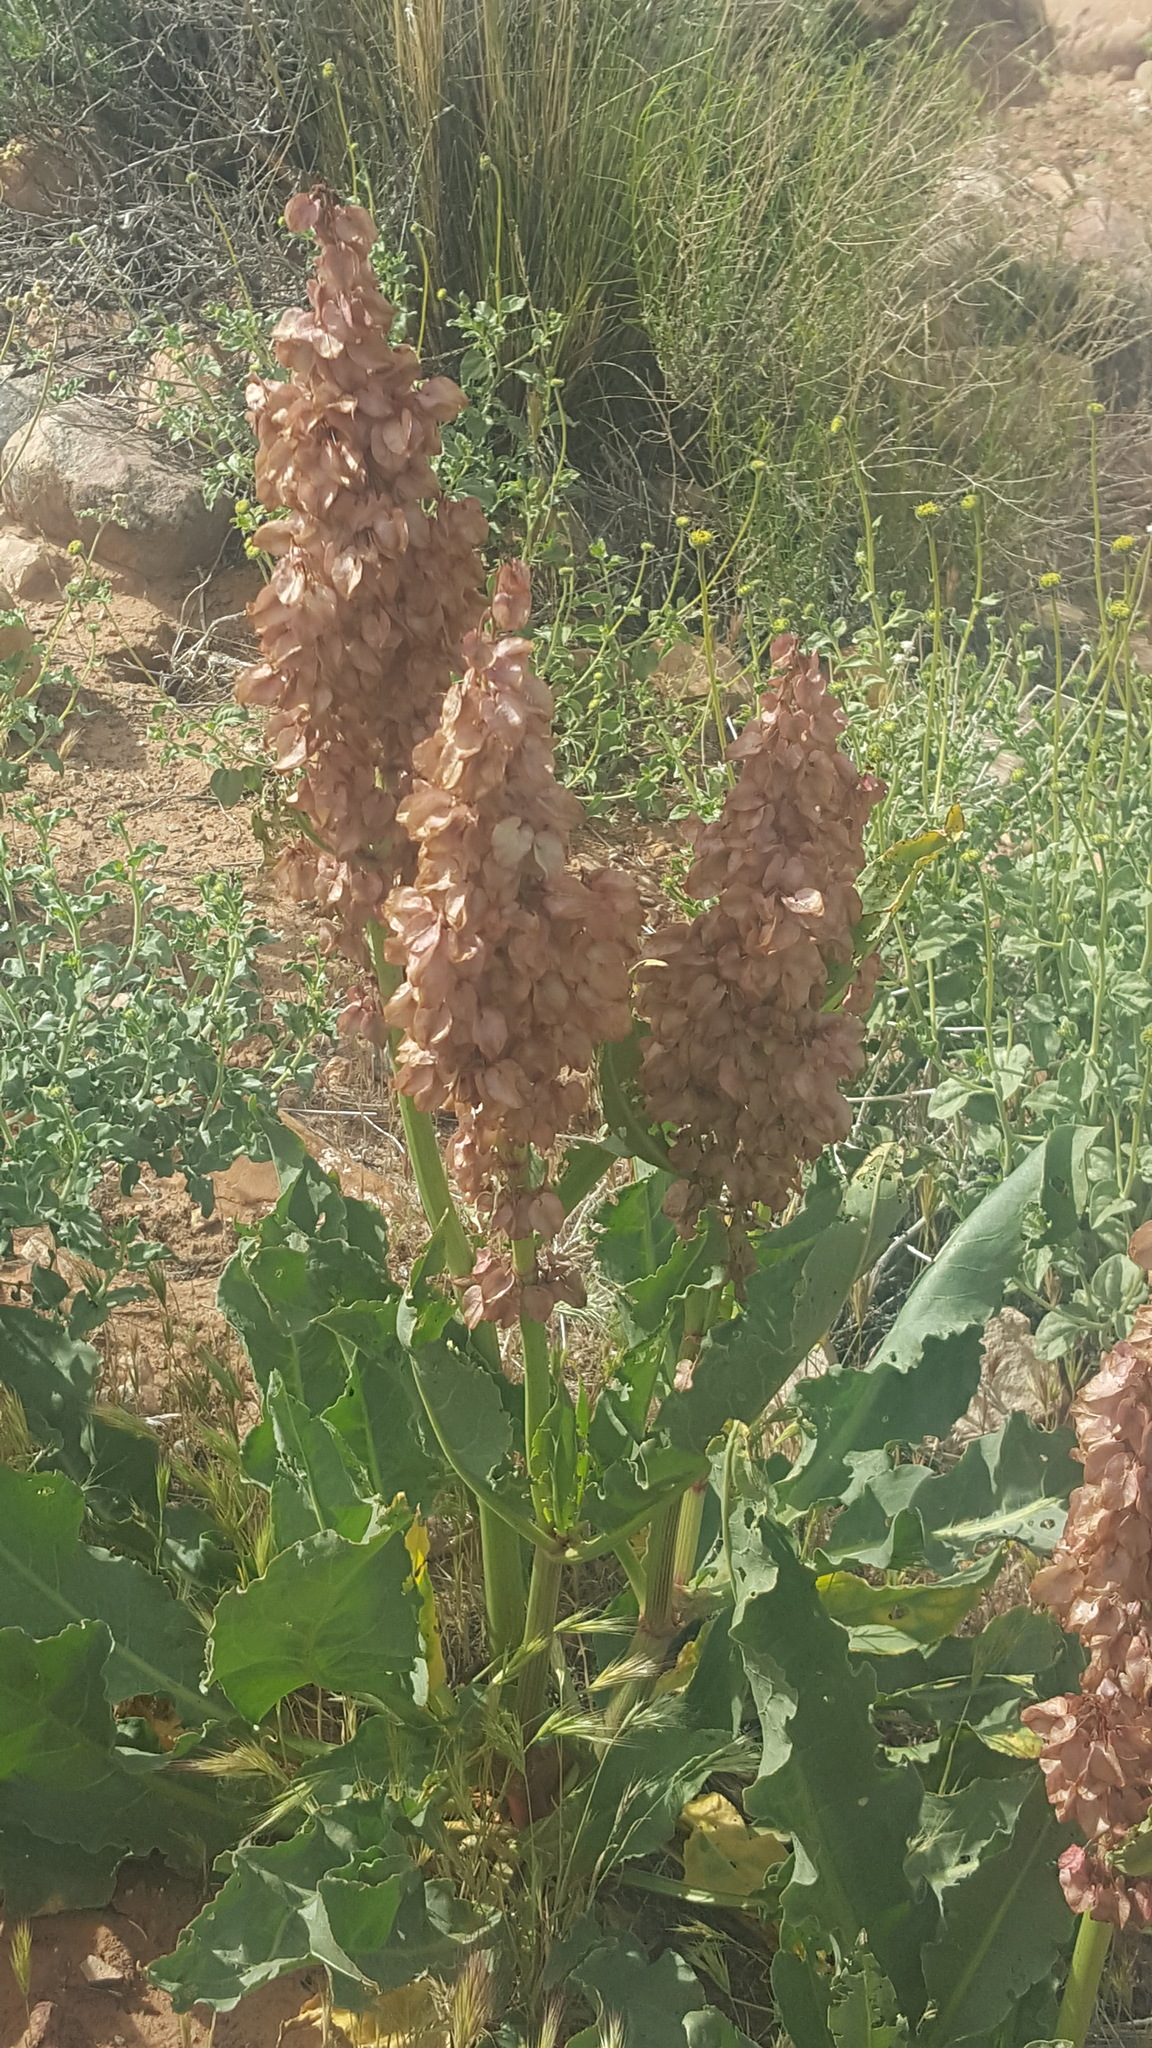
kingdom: Plantae
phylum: Tracheophyta
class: Magnoliopsida
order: Caryophyllales
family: Polygonaceae
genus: Rumex
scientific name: Rumex hymenosepalus
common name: Ganagra
